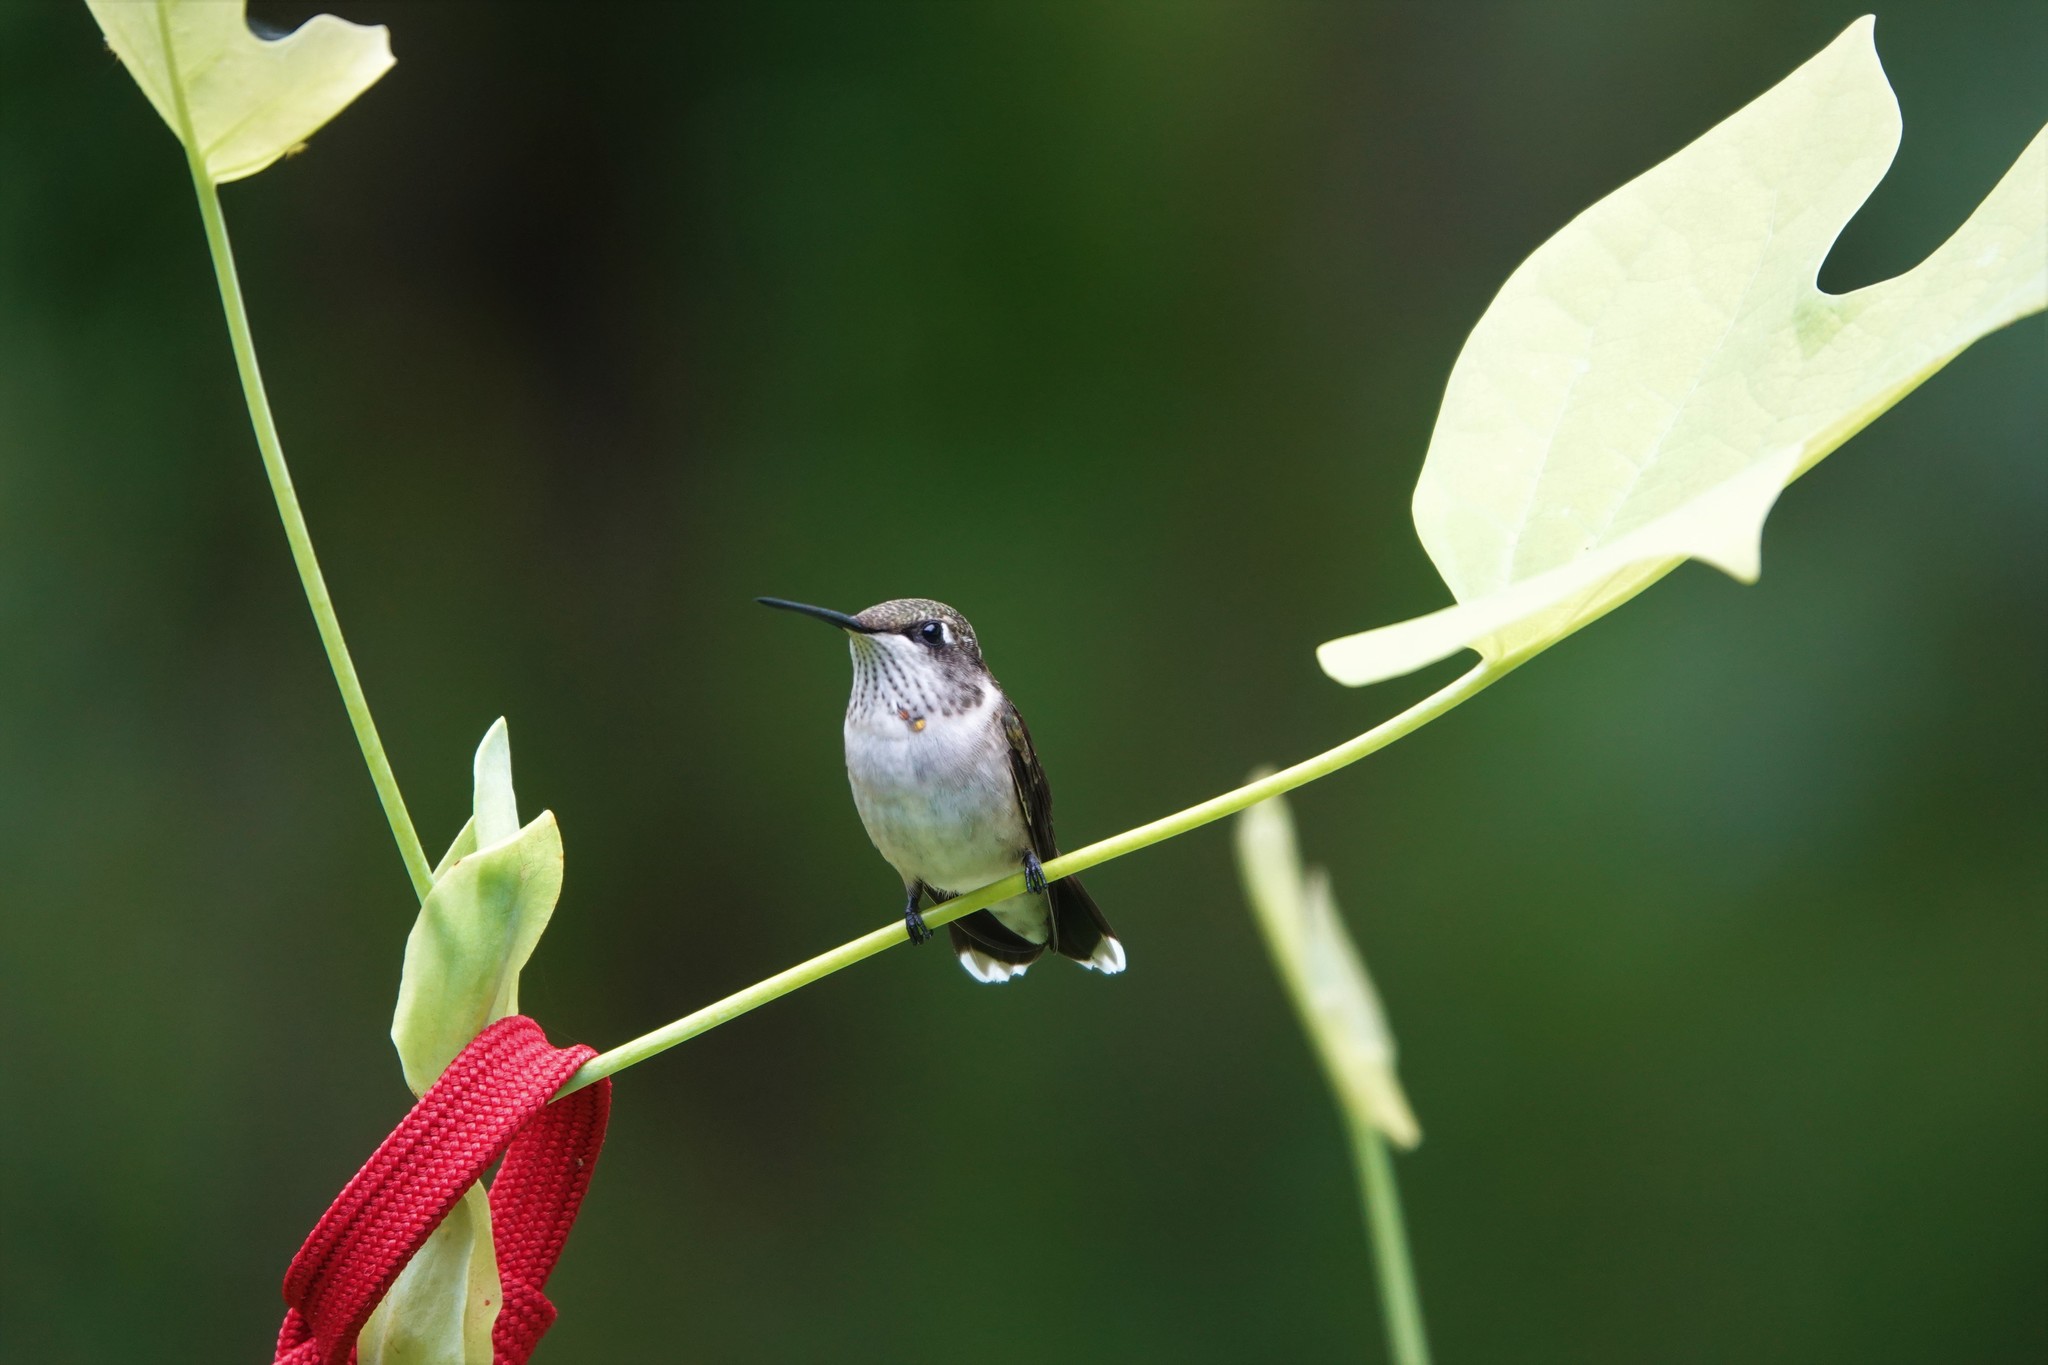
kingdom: Animalia
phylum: Chordata
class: Aves
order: Apodiformes
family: Trochilidae
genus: Archilochus
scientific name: Archilochus colubris
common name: Ruby-throated hummingbird
